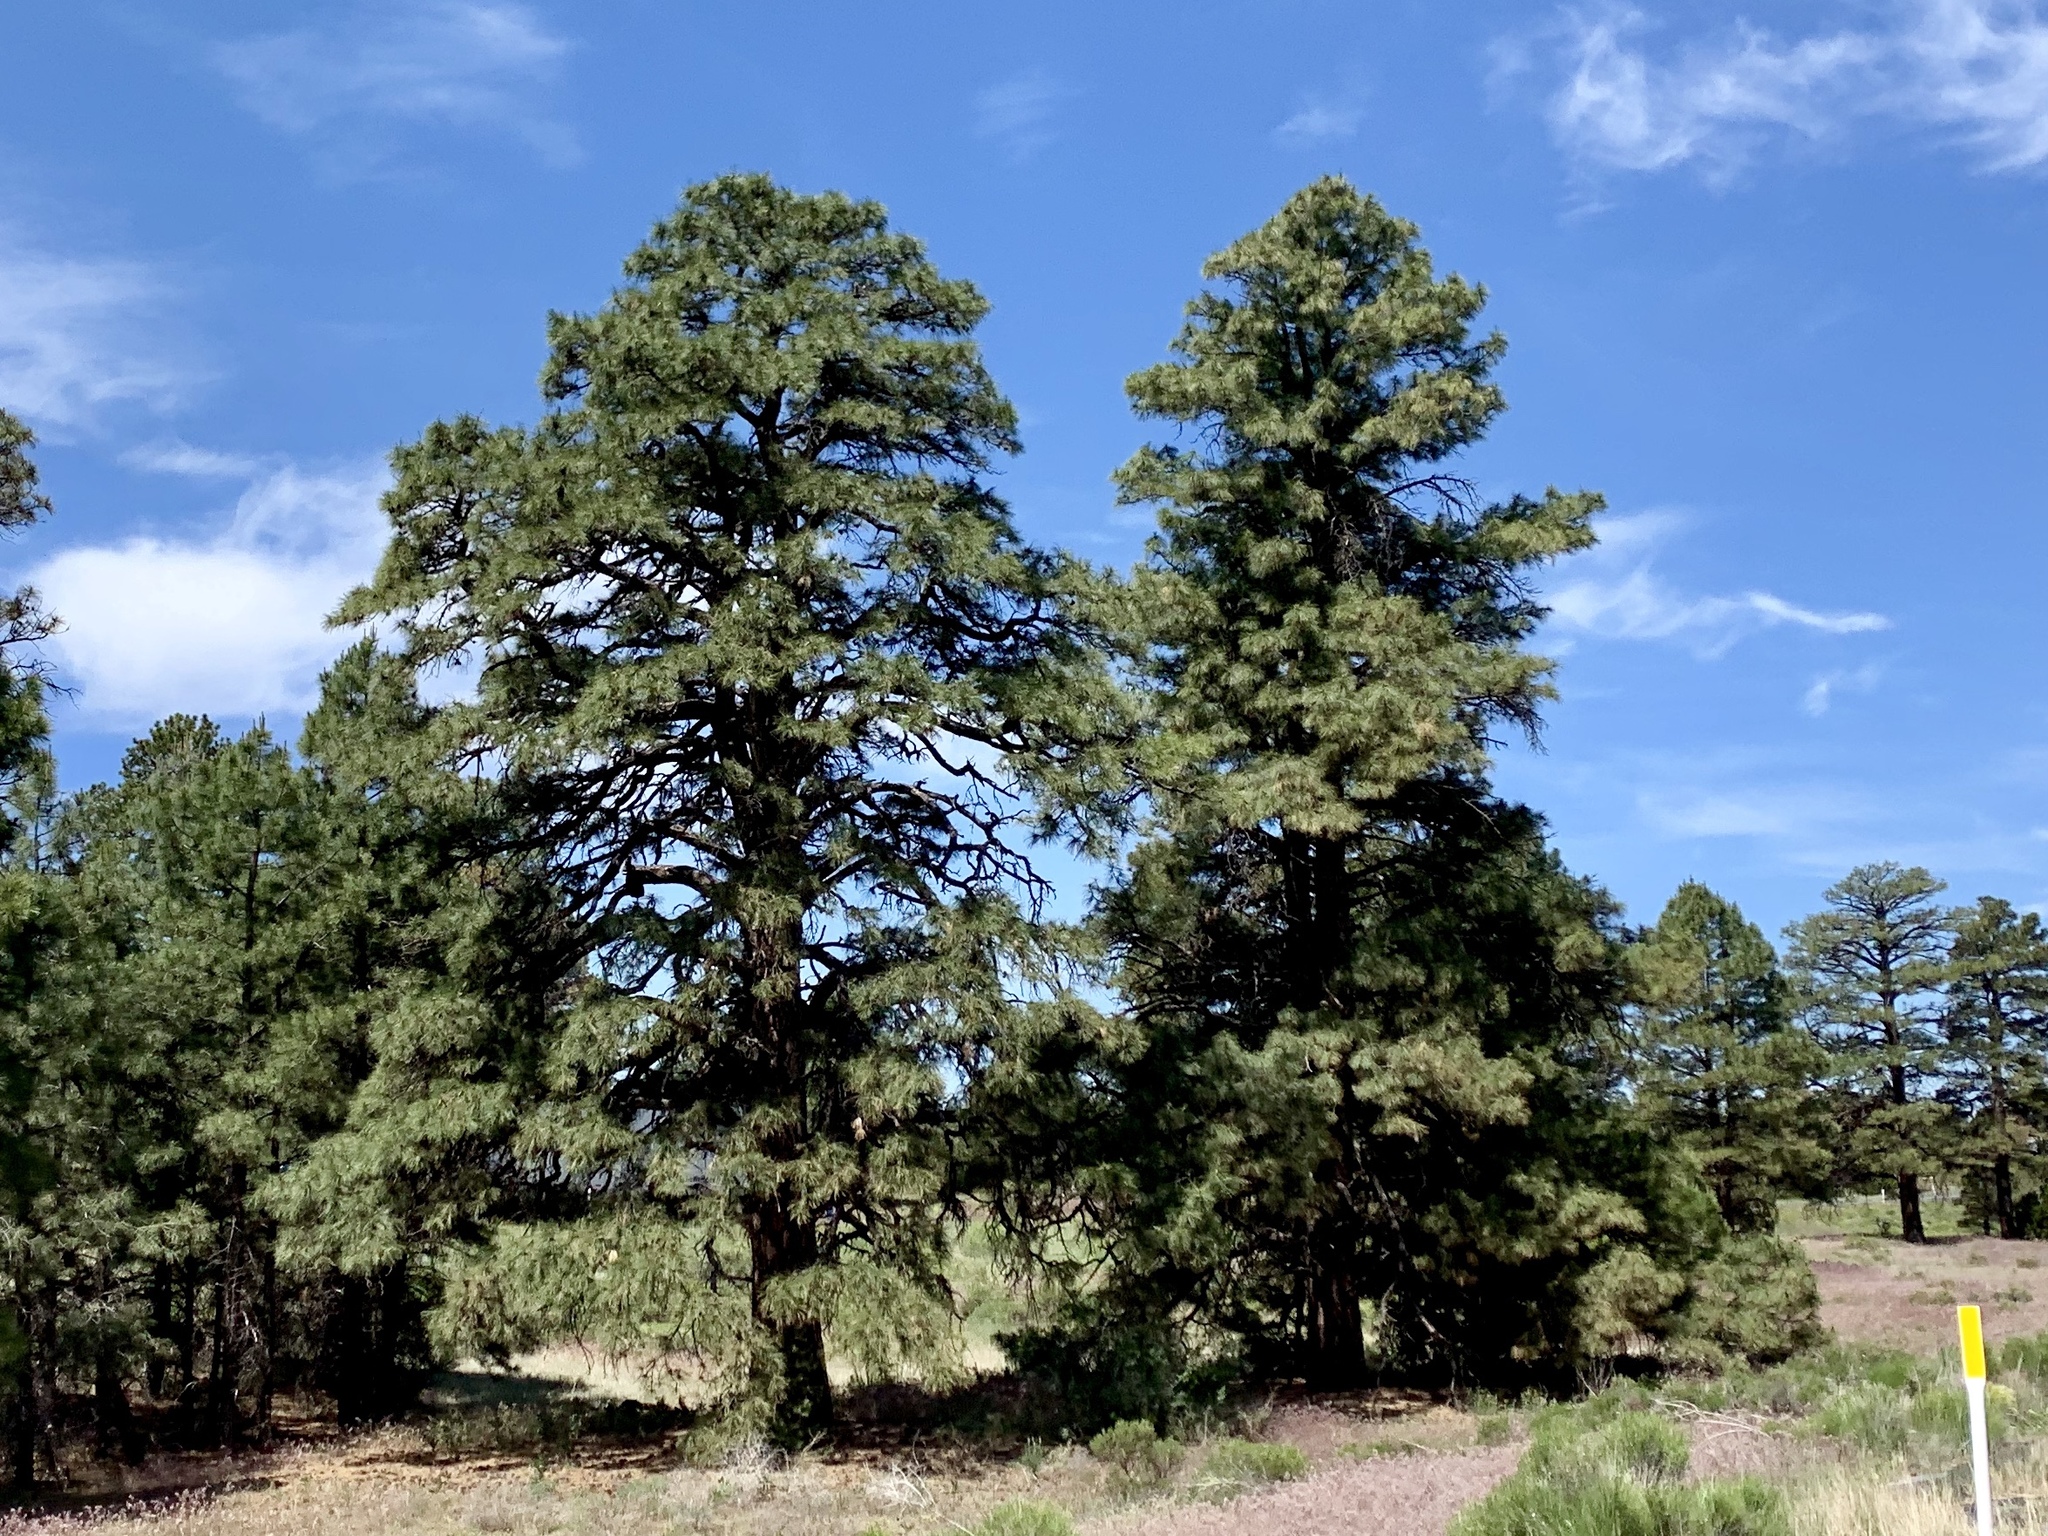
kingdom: Plantae
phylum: Tracheophyta
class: Pinopsida
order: Pinales
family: Pinaceae
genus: Pinus
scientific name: Pinus ponderosa
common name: Western yellow-pine
